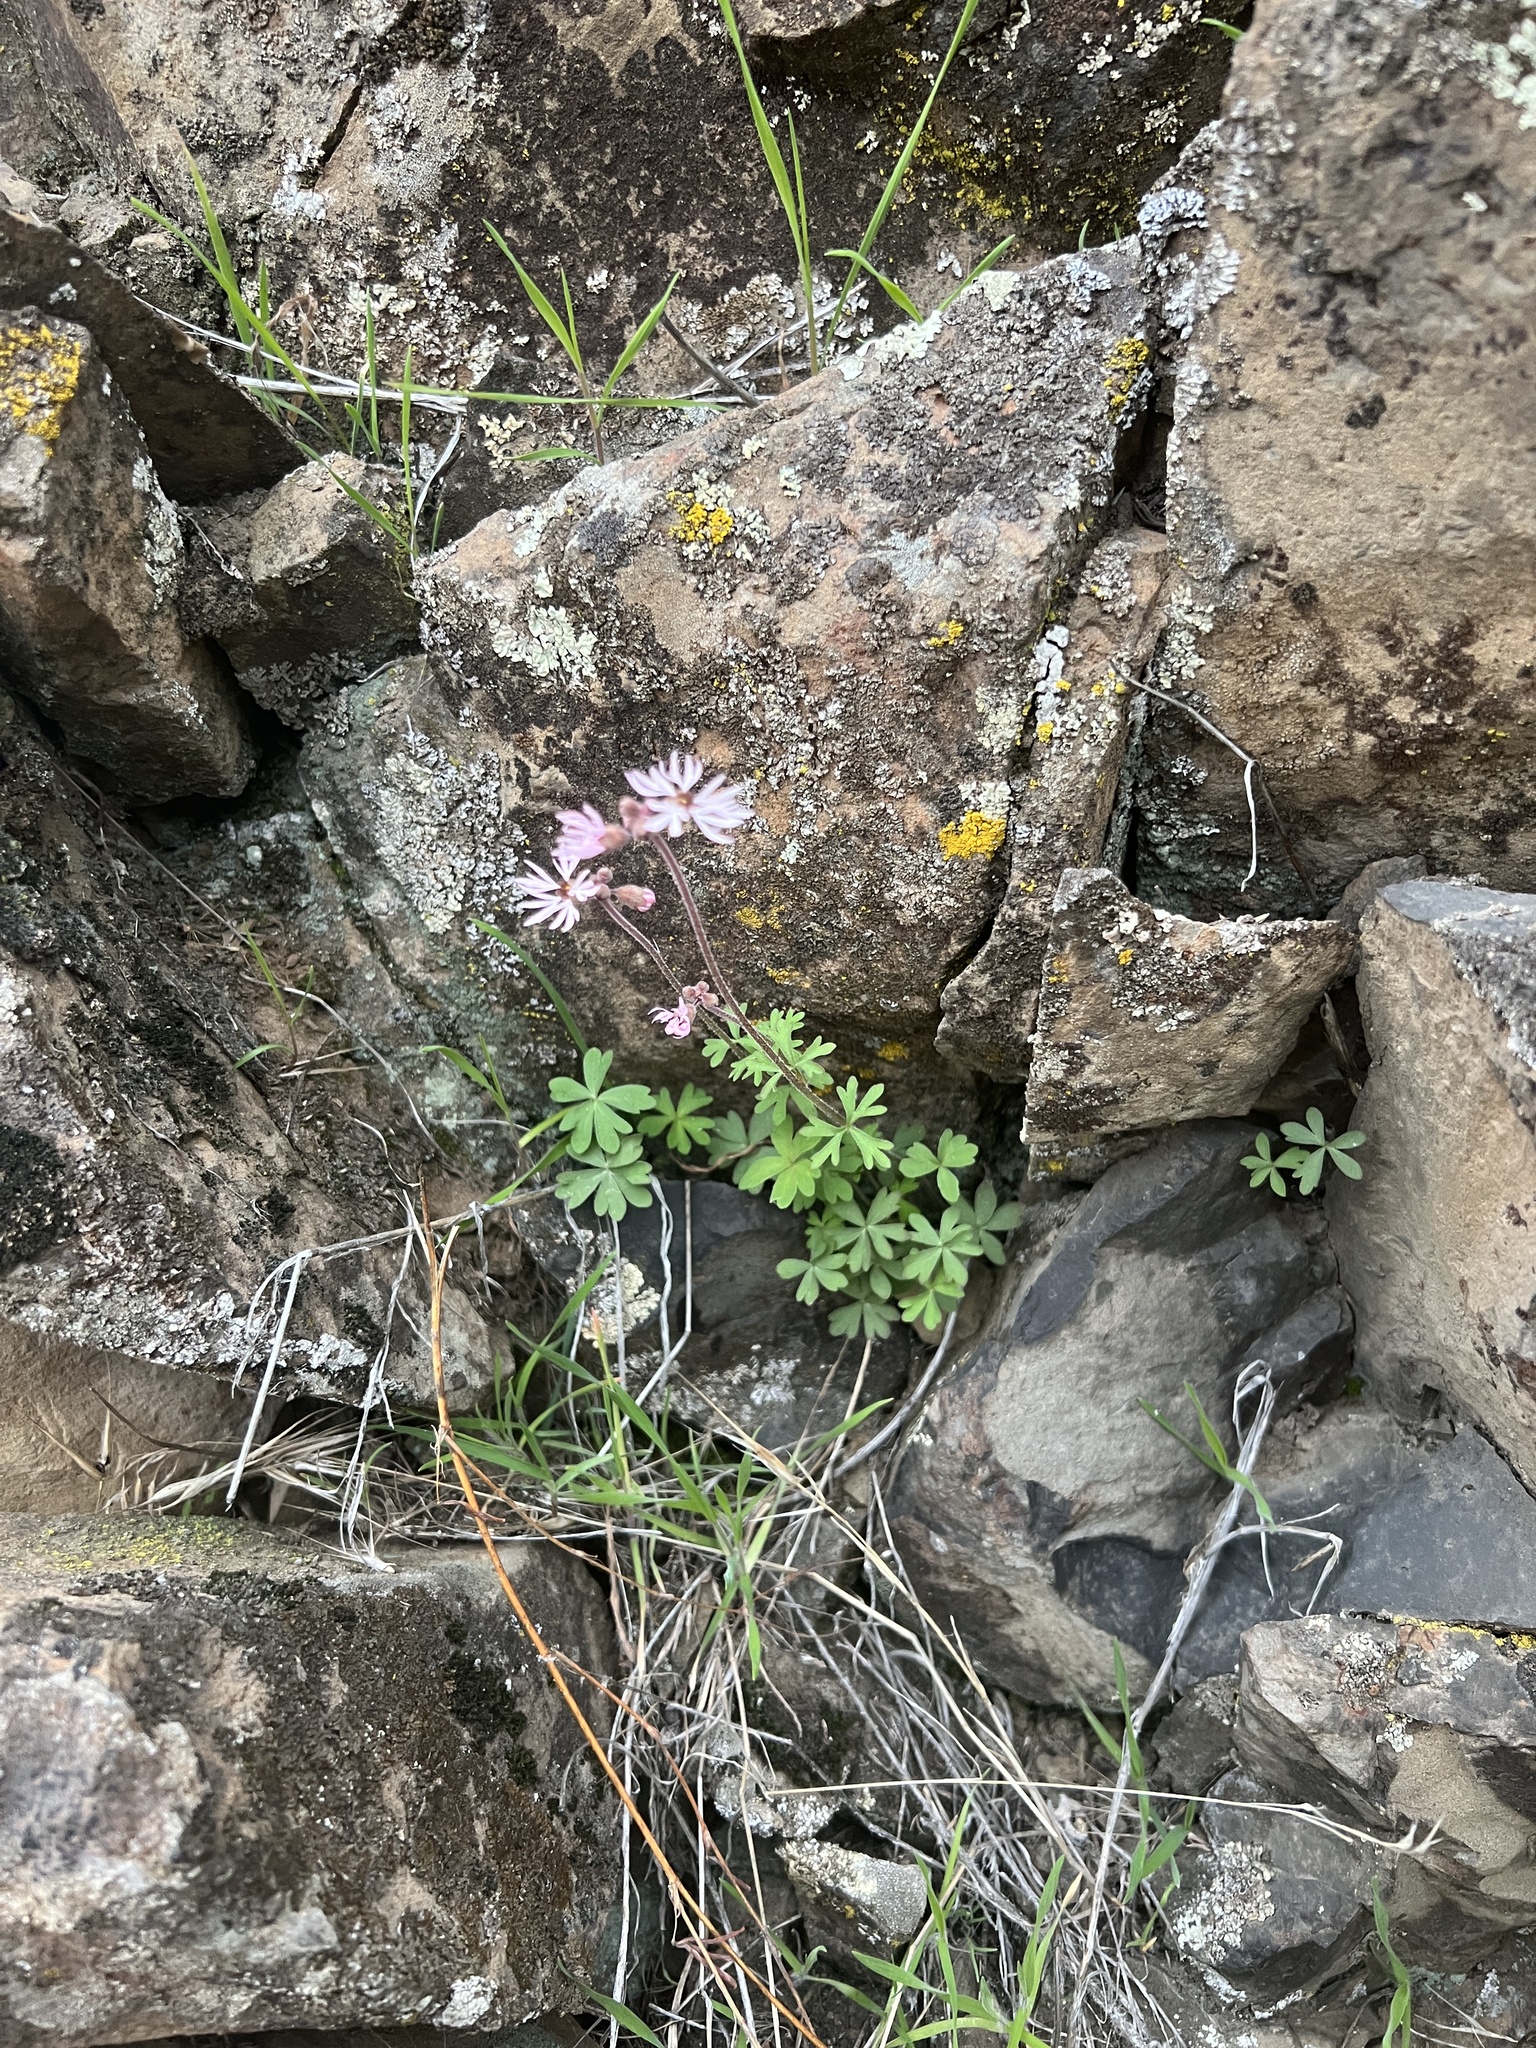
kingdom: Plantae
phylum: Tracheophyta
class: Magnoliopsida
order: Saxifragales
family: Saxifragaceae
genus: Lithophragma
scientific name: Lithophragma glabrum
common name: Bulbous prairie-star
